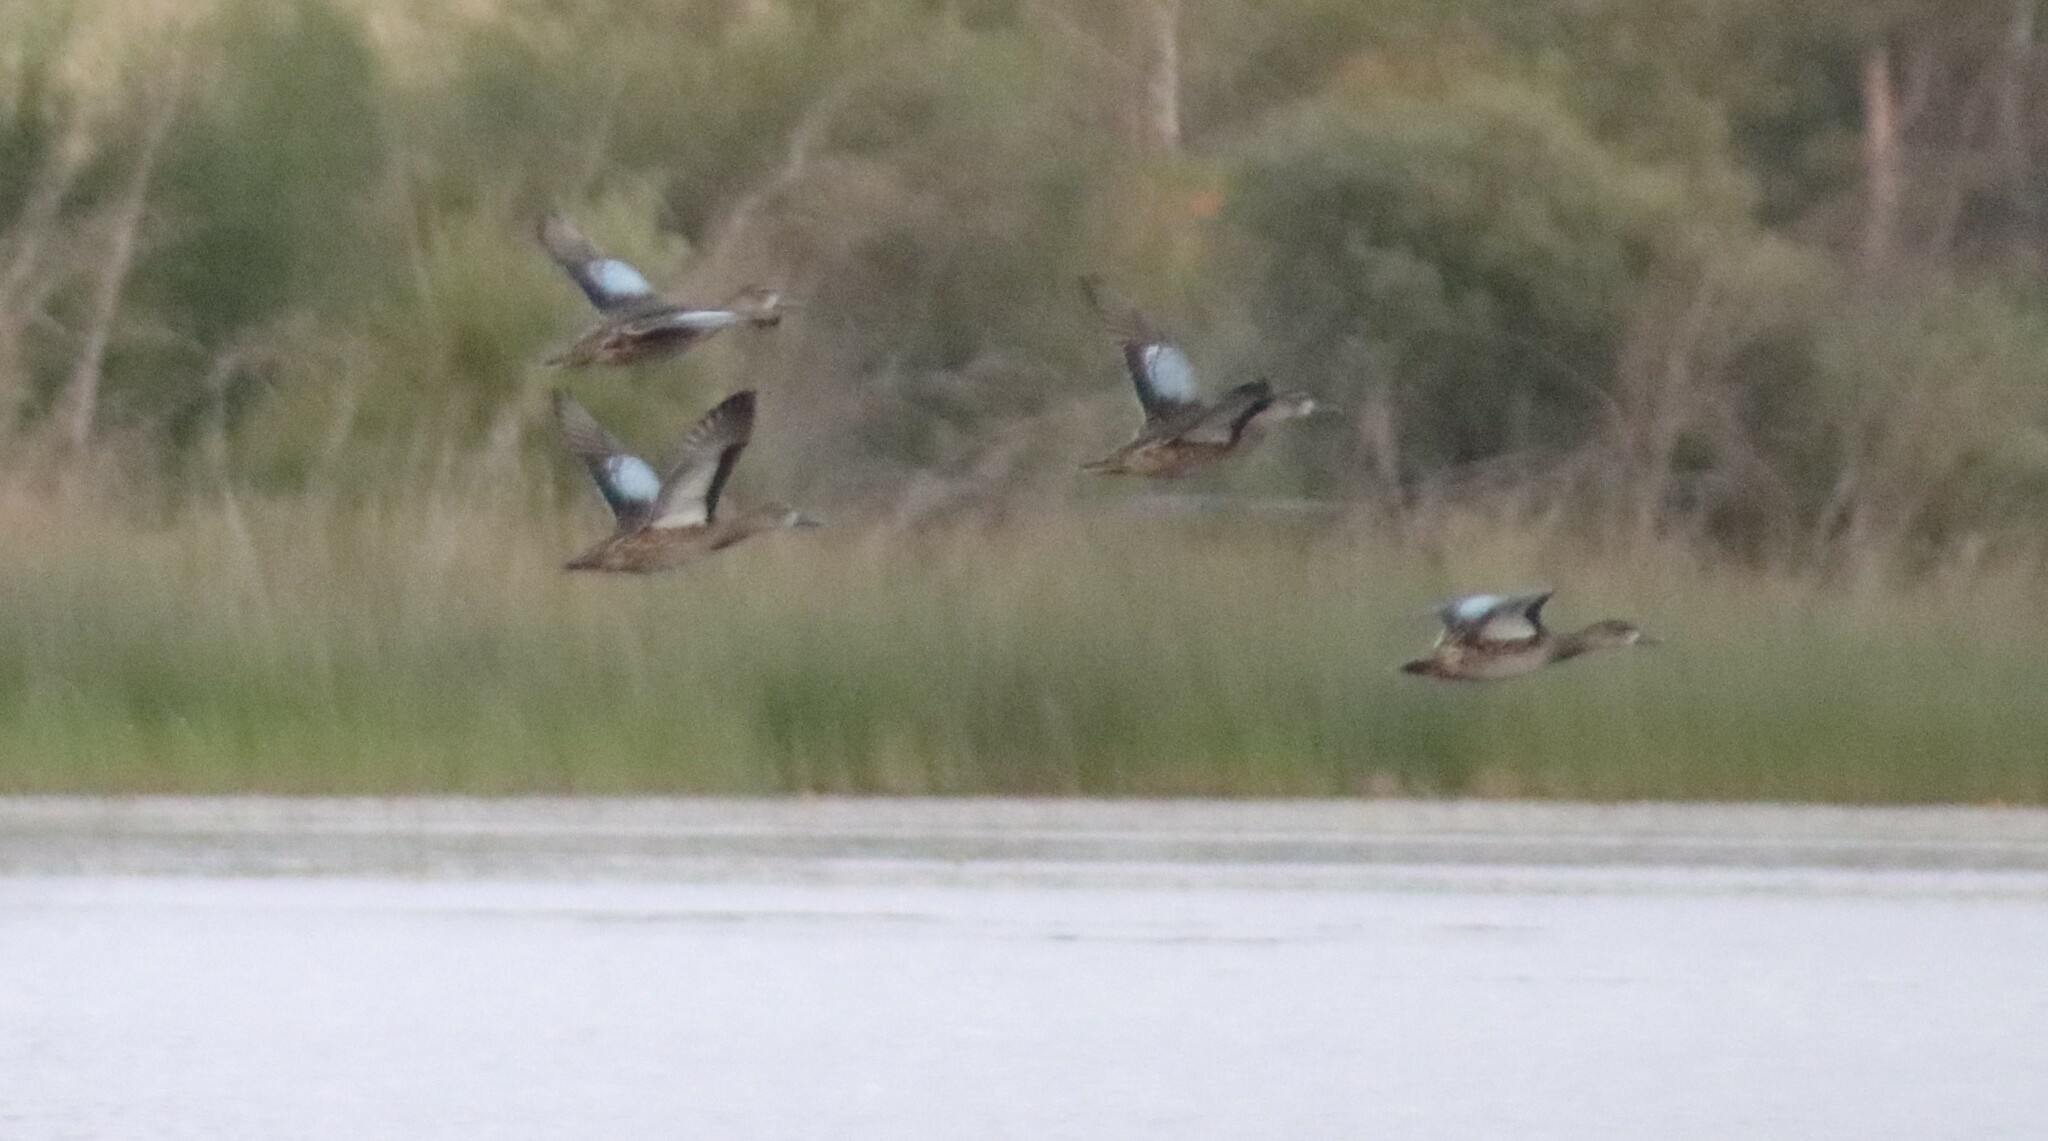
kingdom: Animalia
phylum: Chordata
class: Aves
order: Anseriformes
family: Anatidae
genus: Spatula
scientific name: Spatula discors
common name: Blue-winged teal
